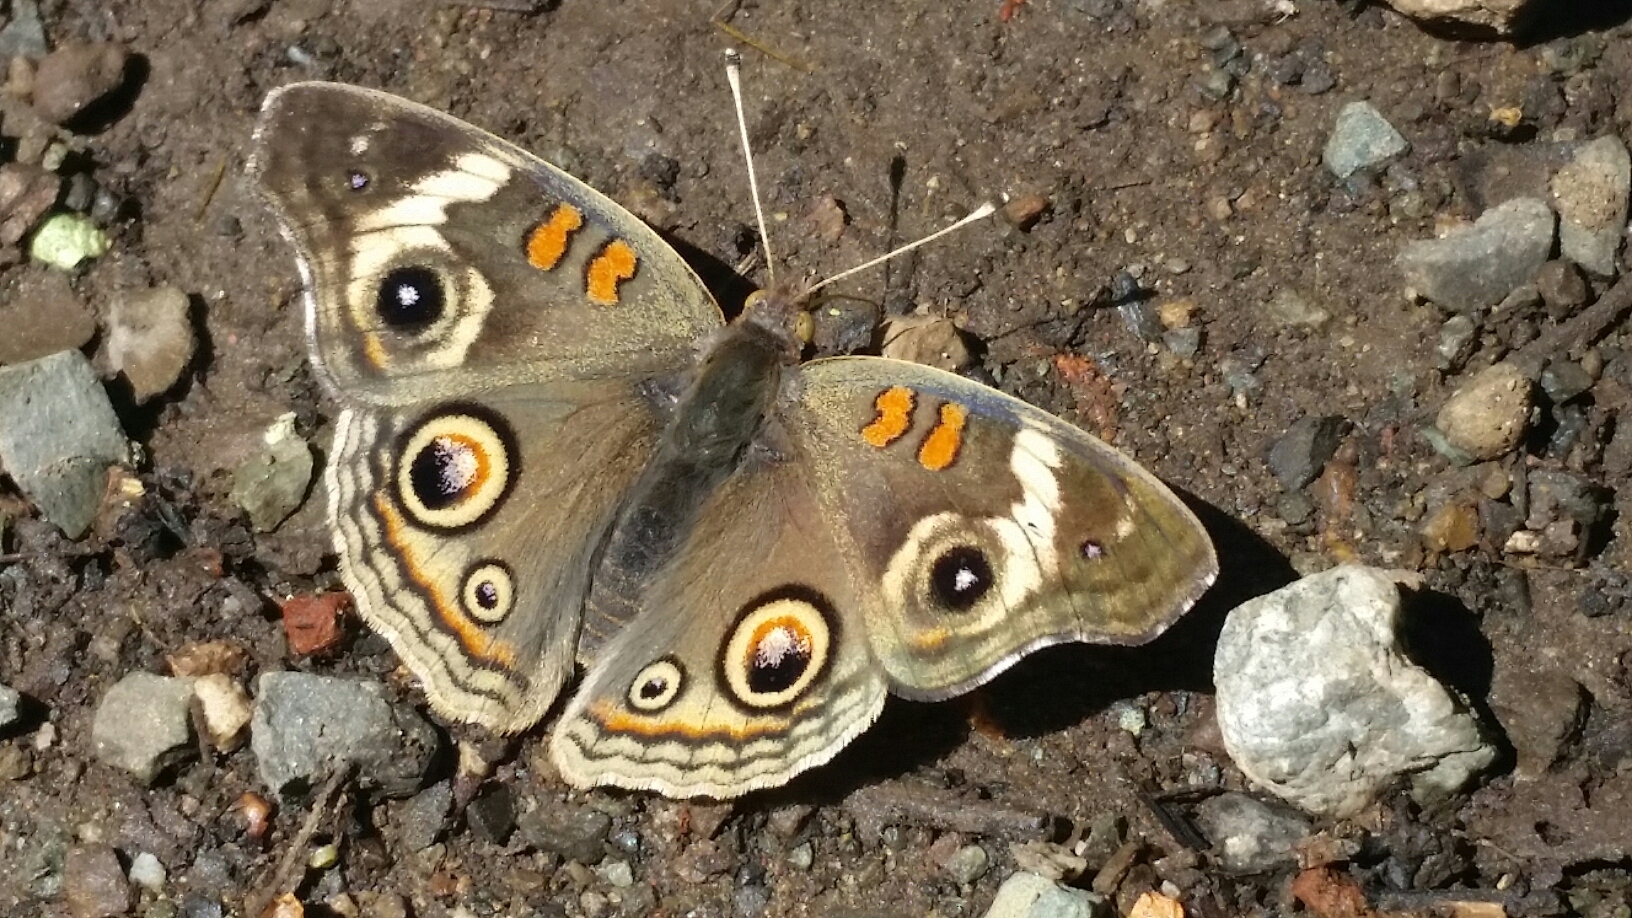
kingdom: Animalia
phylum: Arthropoda
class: Insecta
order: Lepidoptera
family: Nymphalidae
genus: Junonia
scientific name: Junonia grisea
